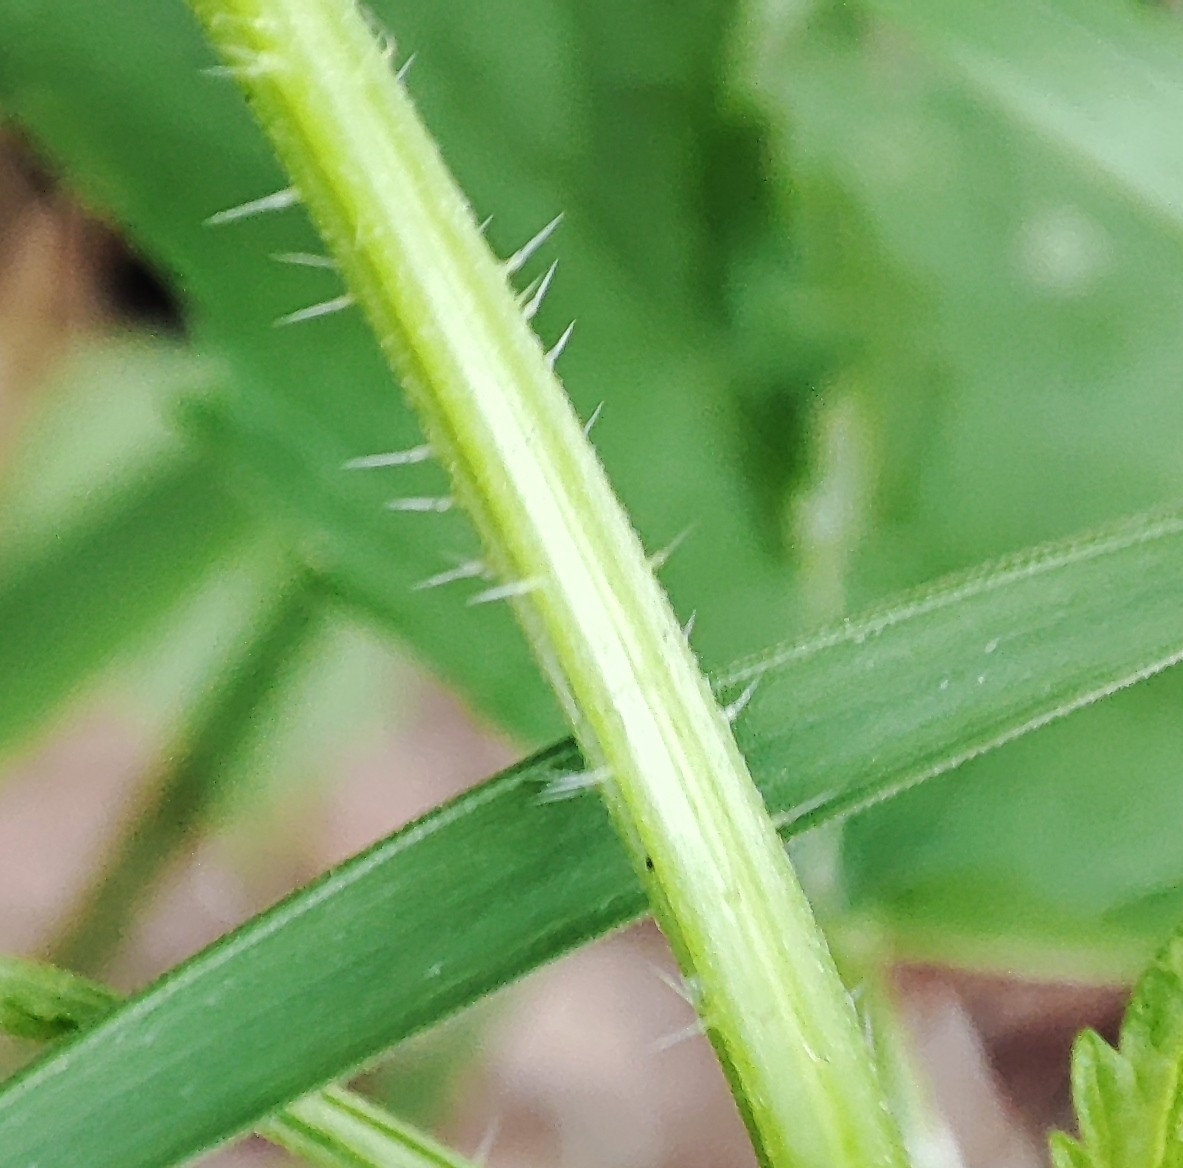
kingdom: Plantae
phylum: Tracheophyta
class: Magnoliopsida
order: Rosales
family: Urticaceae
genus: Urtica
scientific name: Urtica dioica
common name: Common nettle
